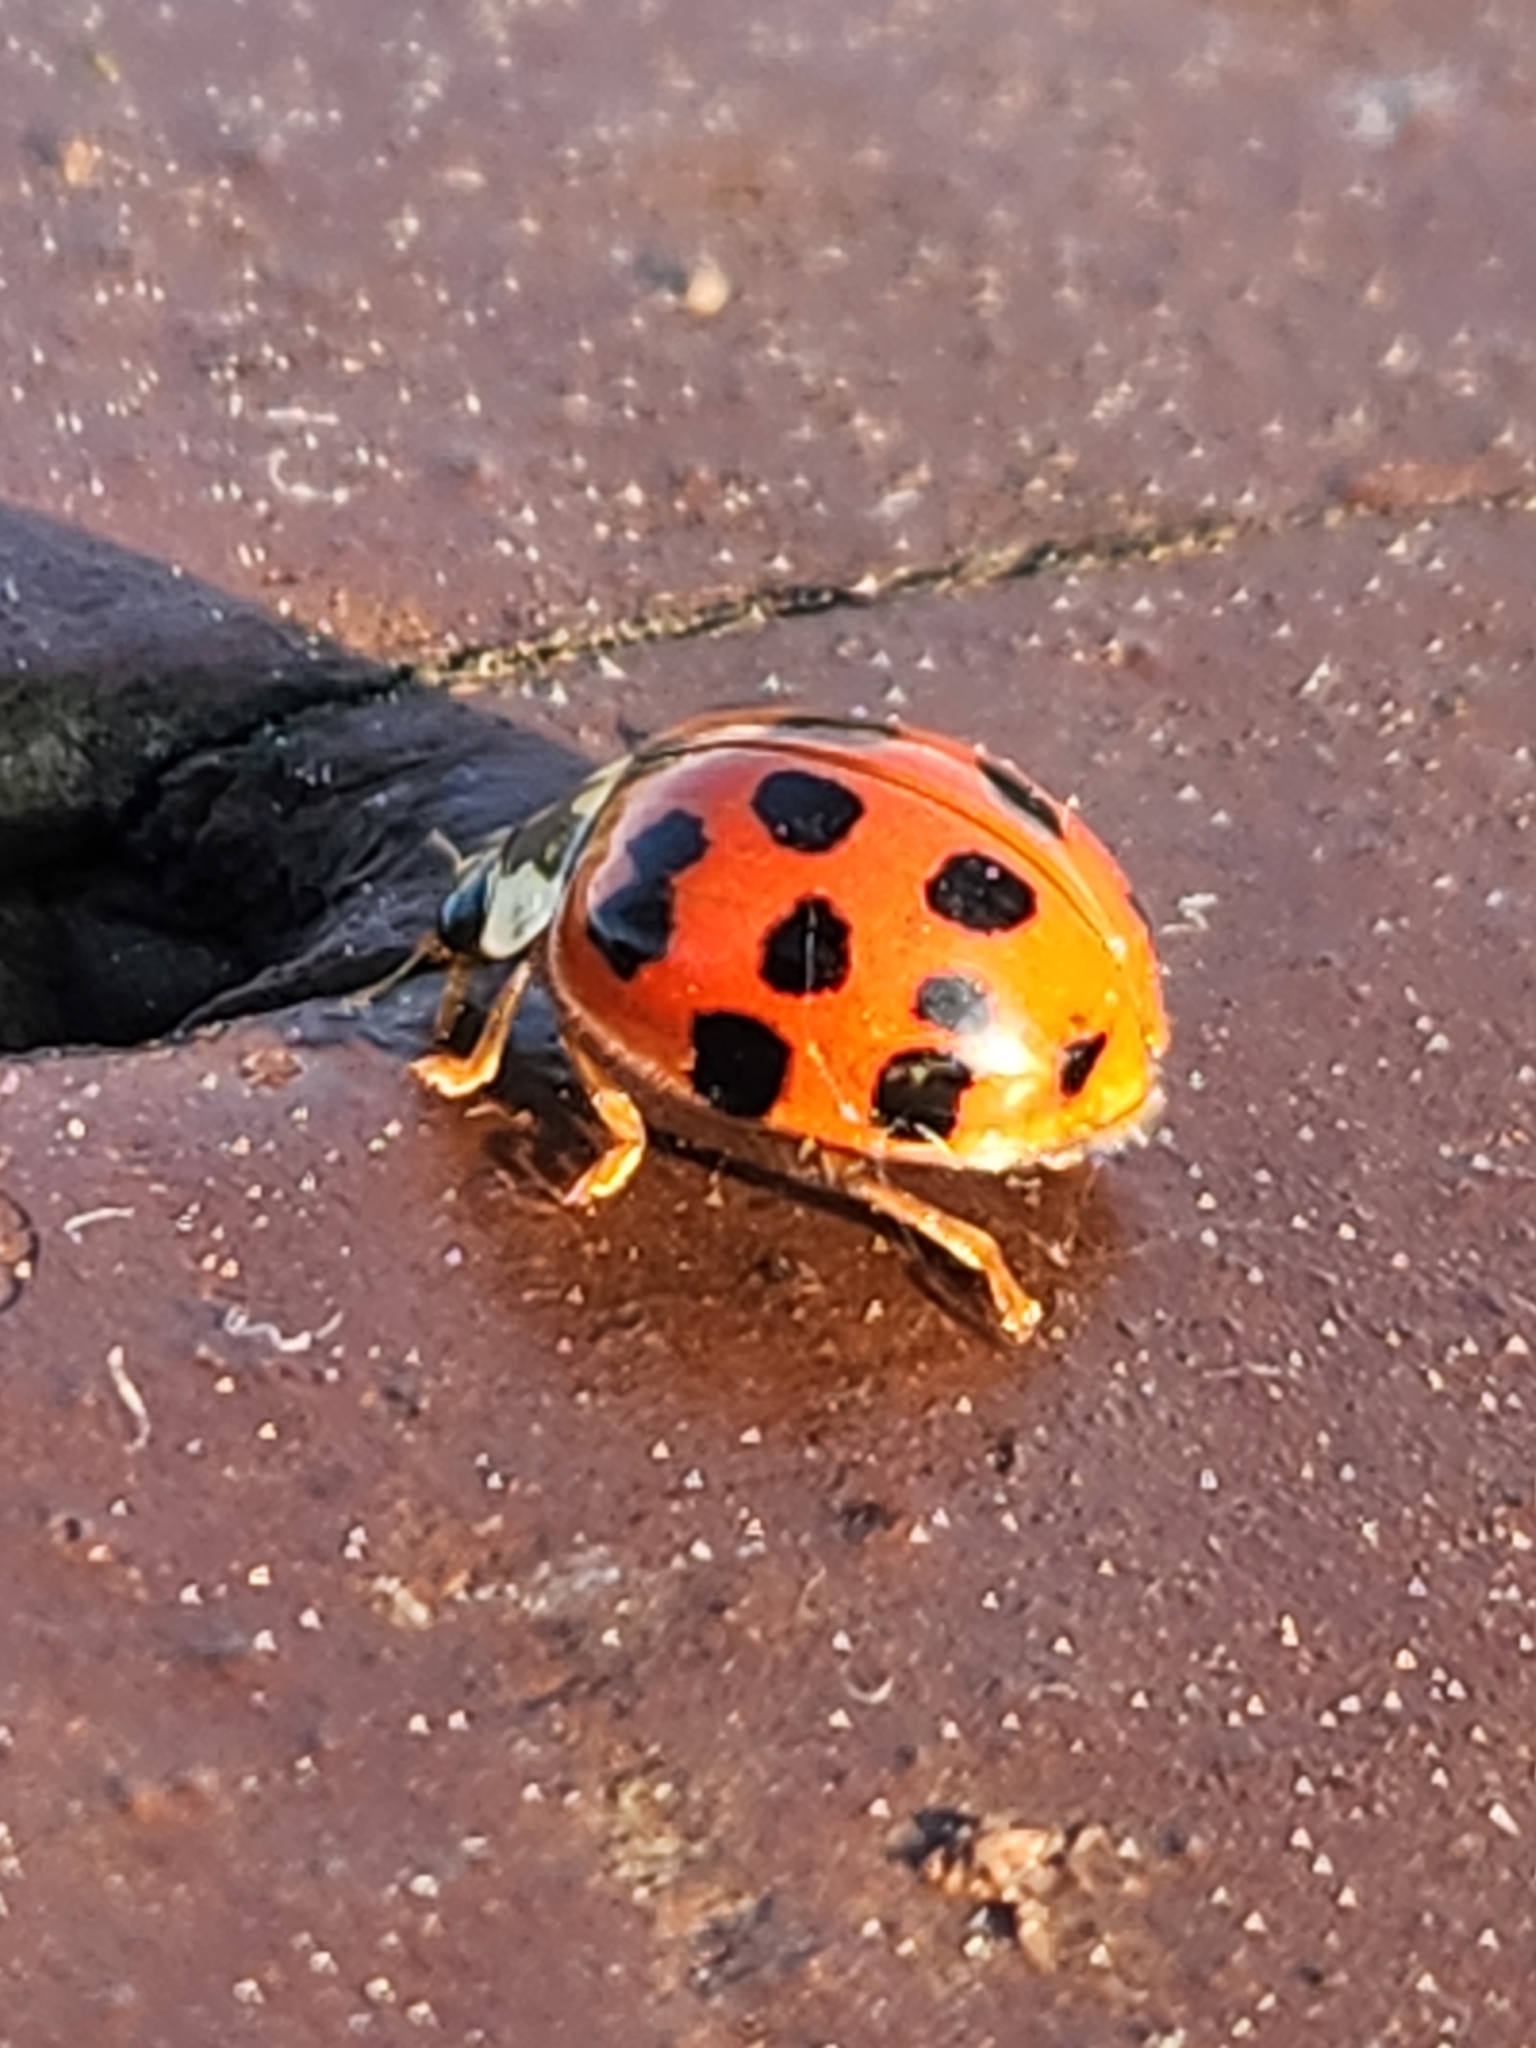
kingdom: Animalia
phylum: Arthropoda
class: Insecta
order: Coleoptera
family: Coccinellidae
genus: Harmonia
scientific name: Harmonia axyridis
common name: Harlequin ladybird
